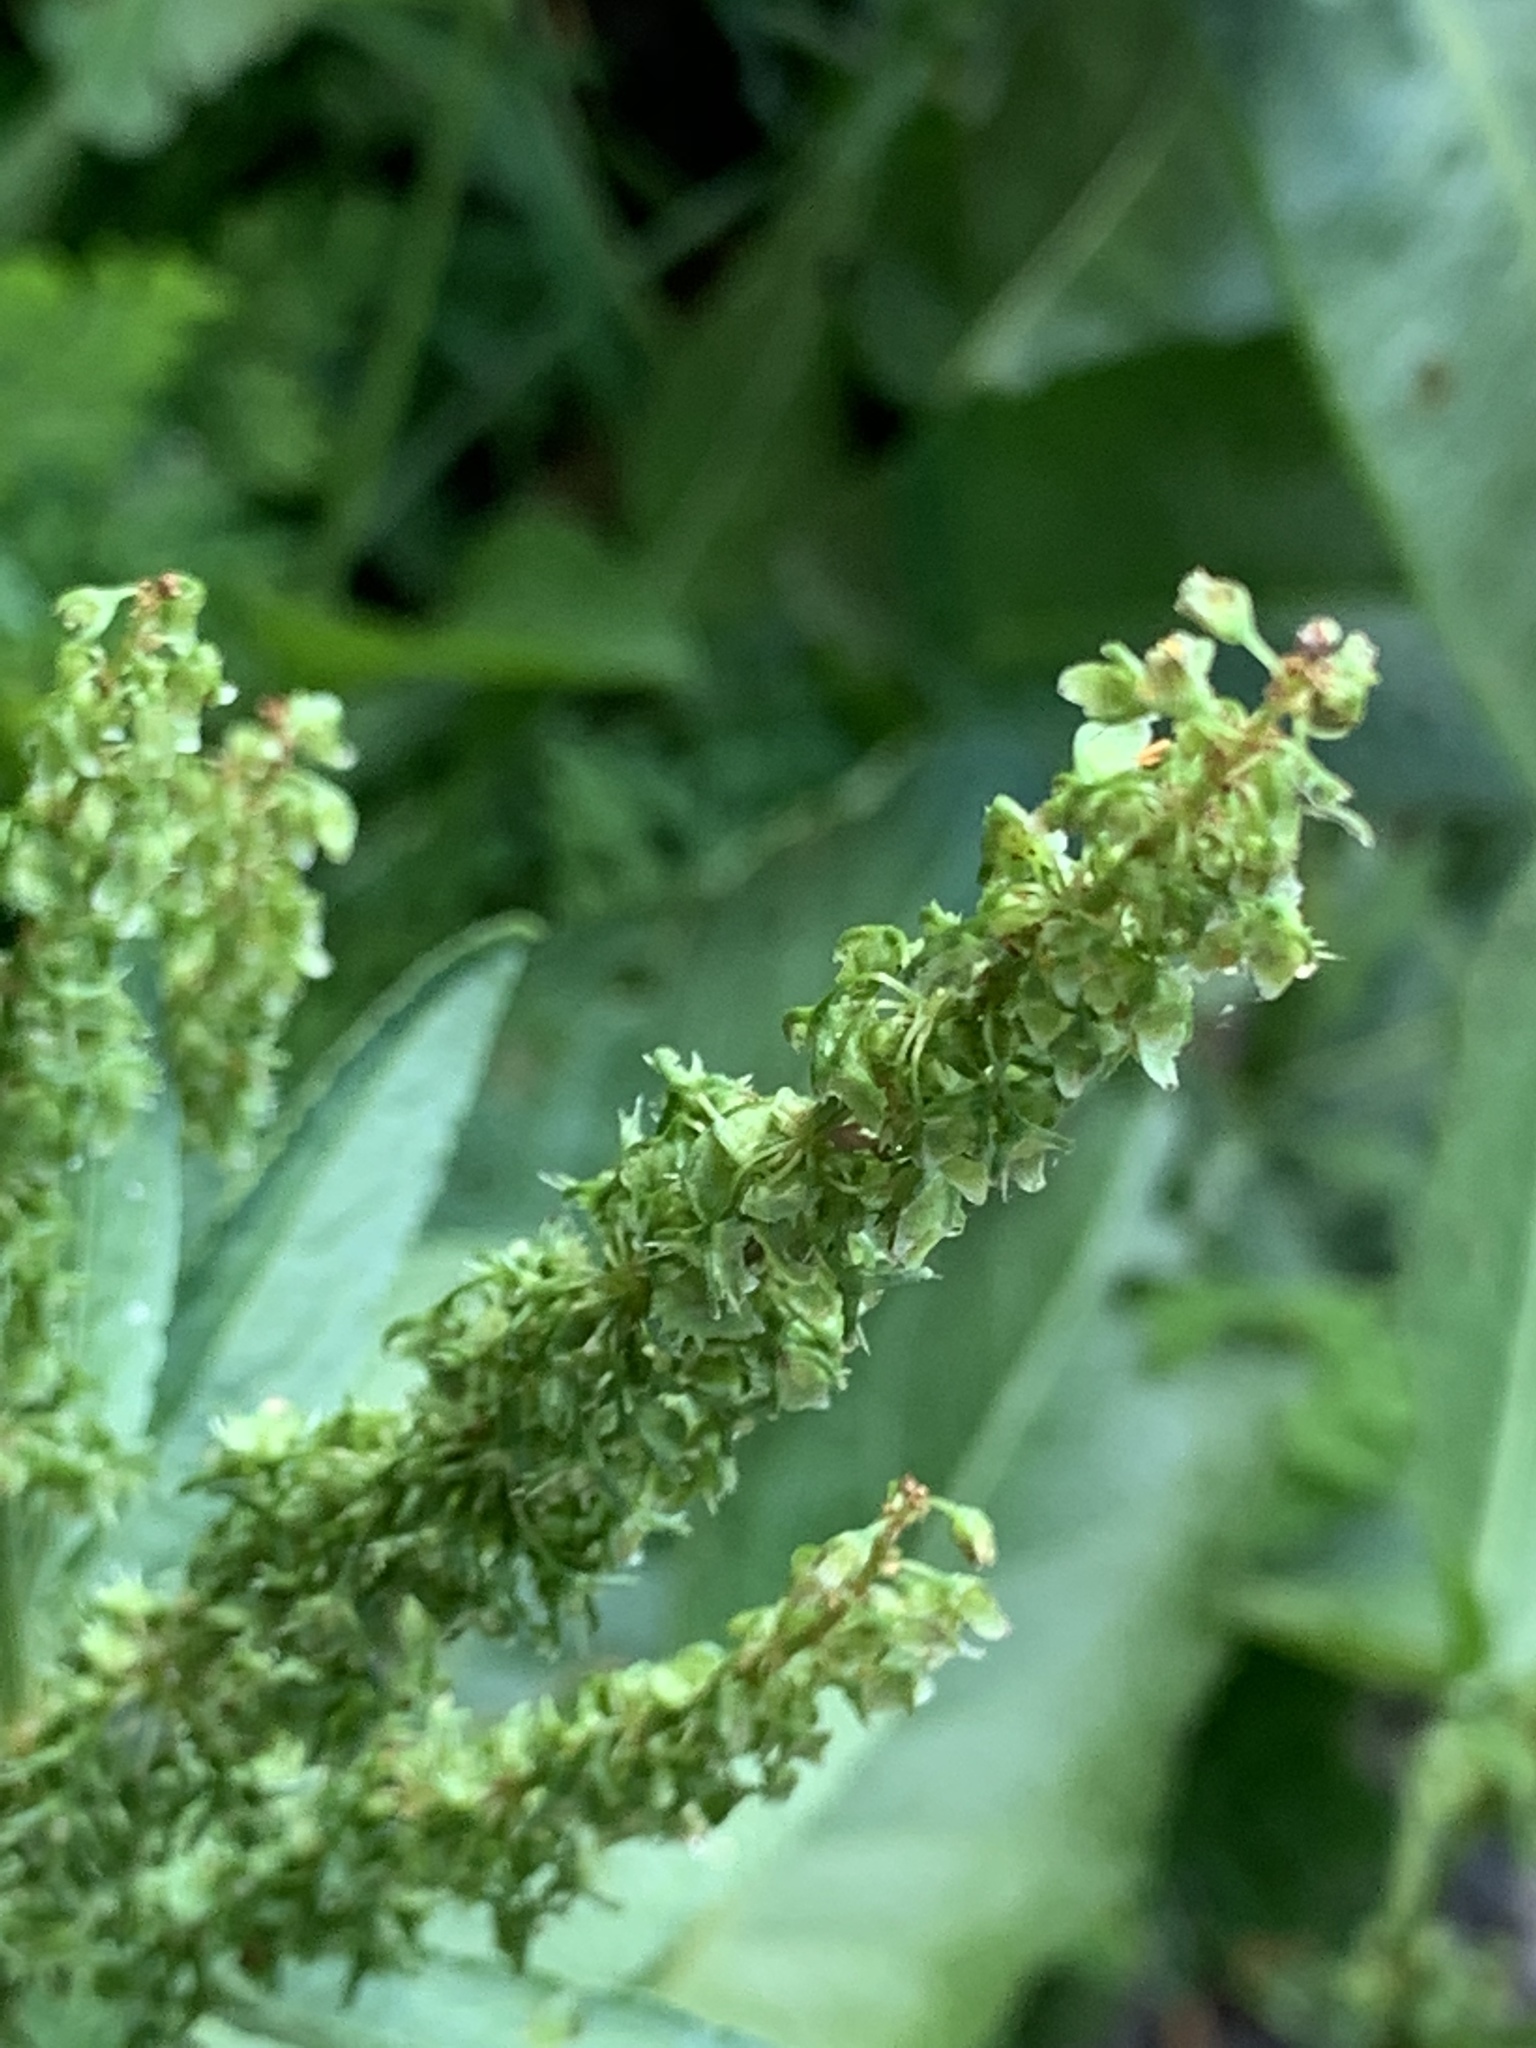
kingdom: Plantae
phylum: Tracheophyta
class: Magnoliopsida
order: Caryophyllales
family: Polygonaceae
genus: Rumex
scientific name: Rumex obtusifolius
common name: Bitter dock
